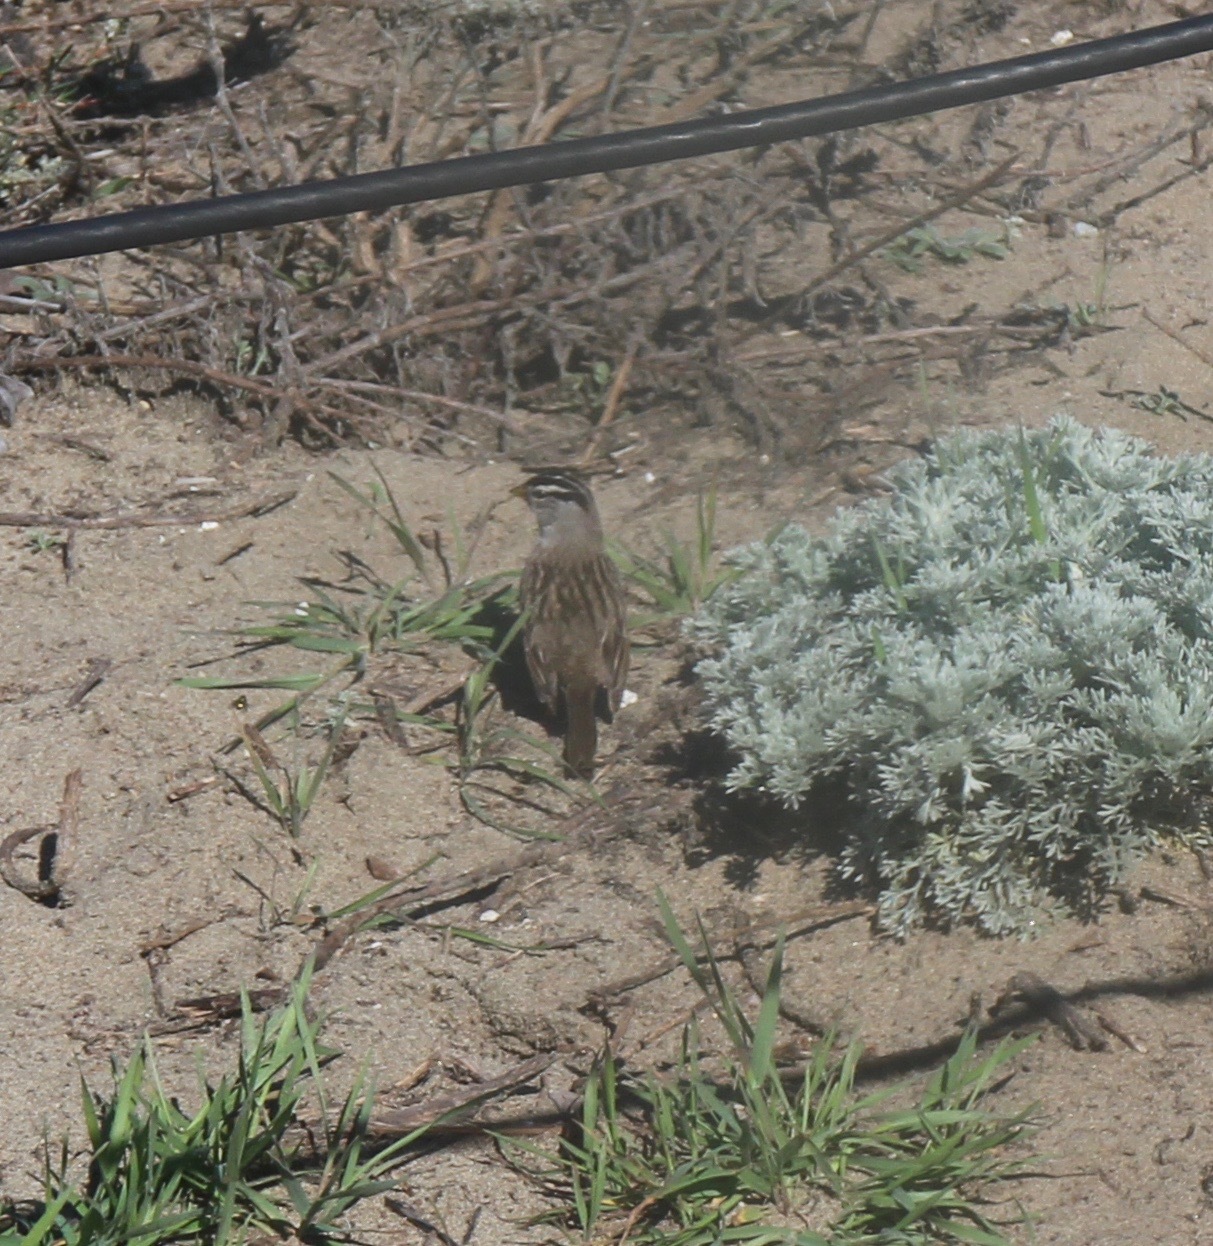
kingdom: Animalia
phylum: Chordata
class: Aves
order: Passeriformes
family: Passerellidae
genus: Zonotrichia
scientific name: Zonotrichia leucophrys
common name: White-crowned sparrow
